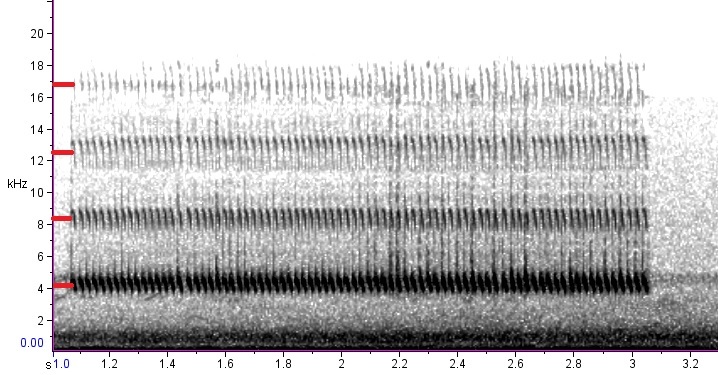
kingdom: Animalia
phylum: Arthropoda
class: Insecta
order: Orthoptera
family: Gryllidae
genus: Gryllus
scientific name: Gryllus rubens
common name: Southeastern field cricket
